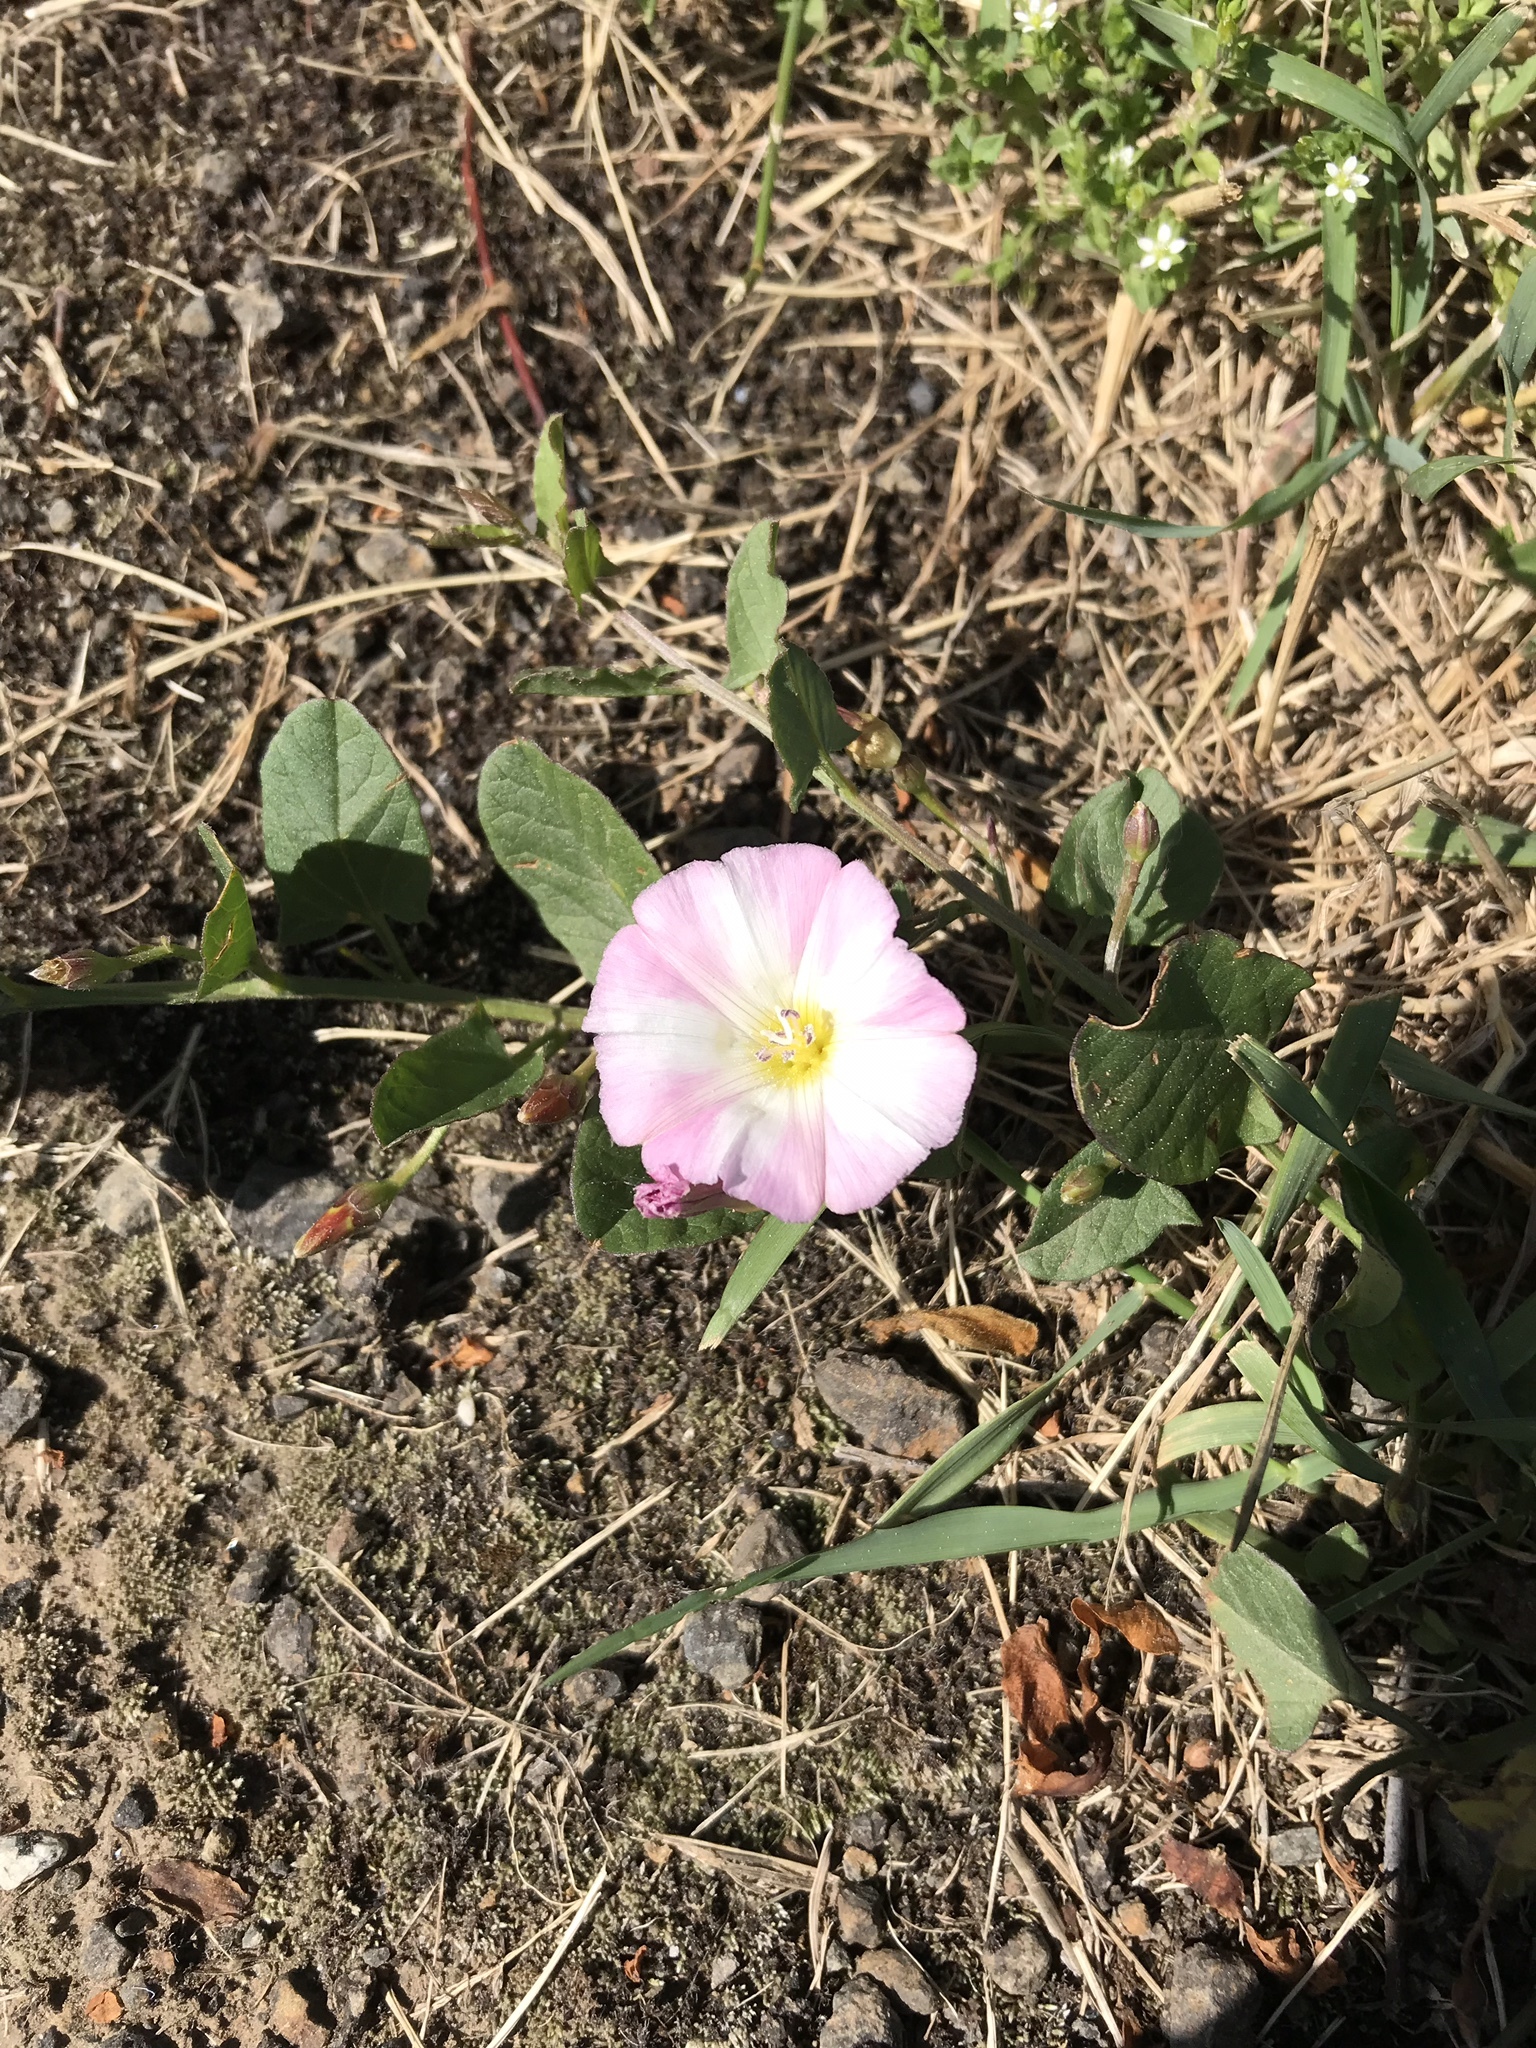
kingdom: Plantae
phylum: Tracheophyta
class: Magnoliopsida
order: Solanales
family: Convolvulaceae
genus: Convolvulus
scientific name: Convolvulus arvensis
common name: Field bindweed
